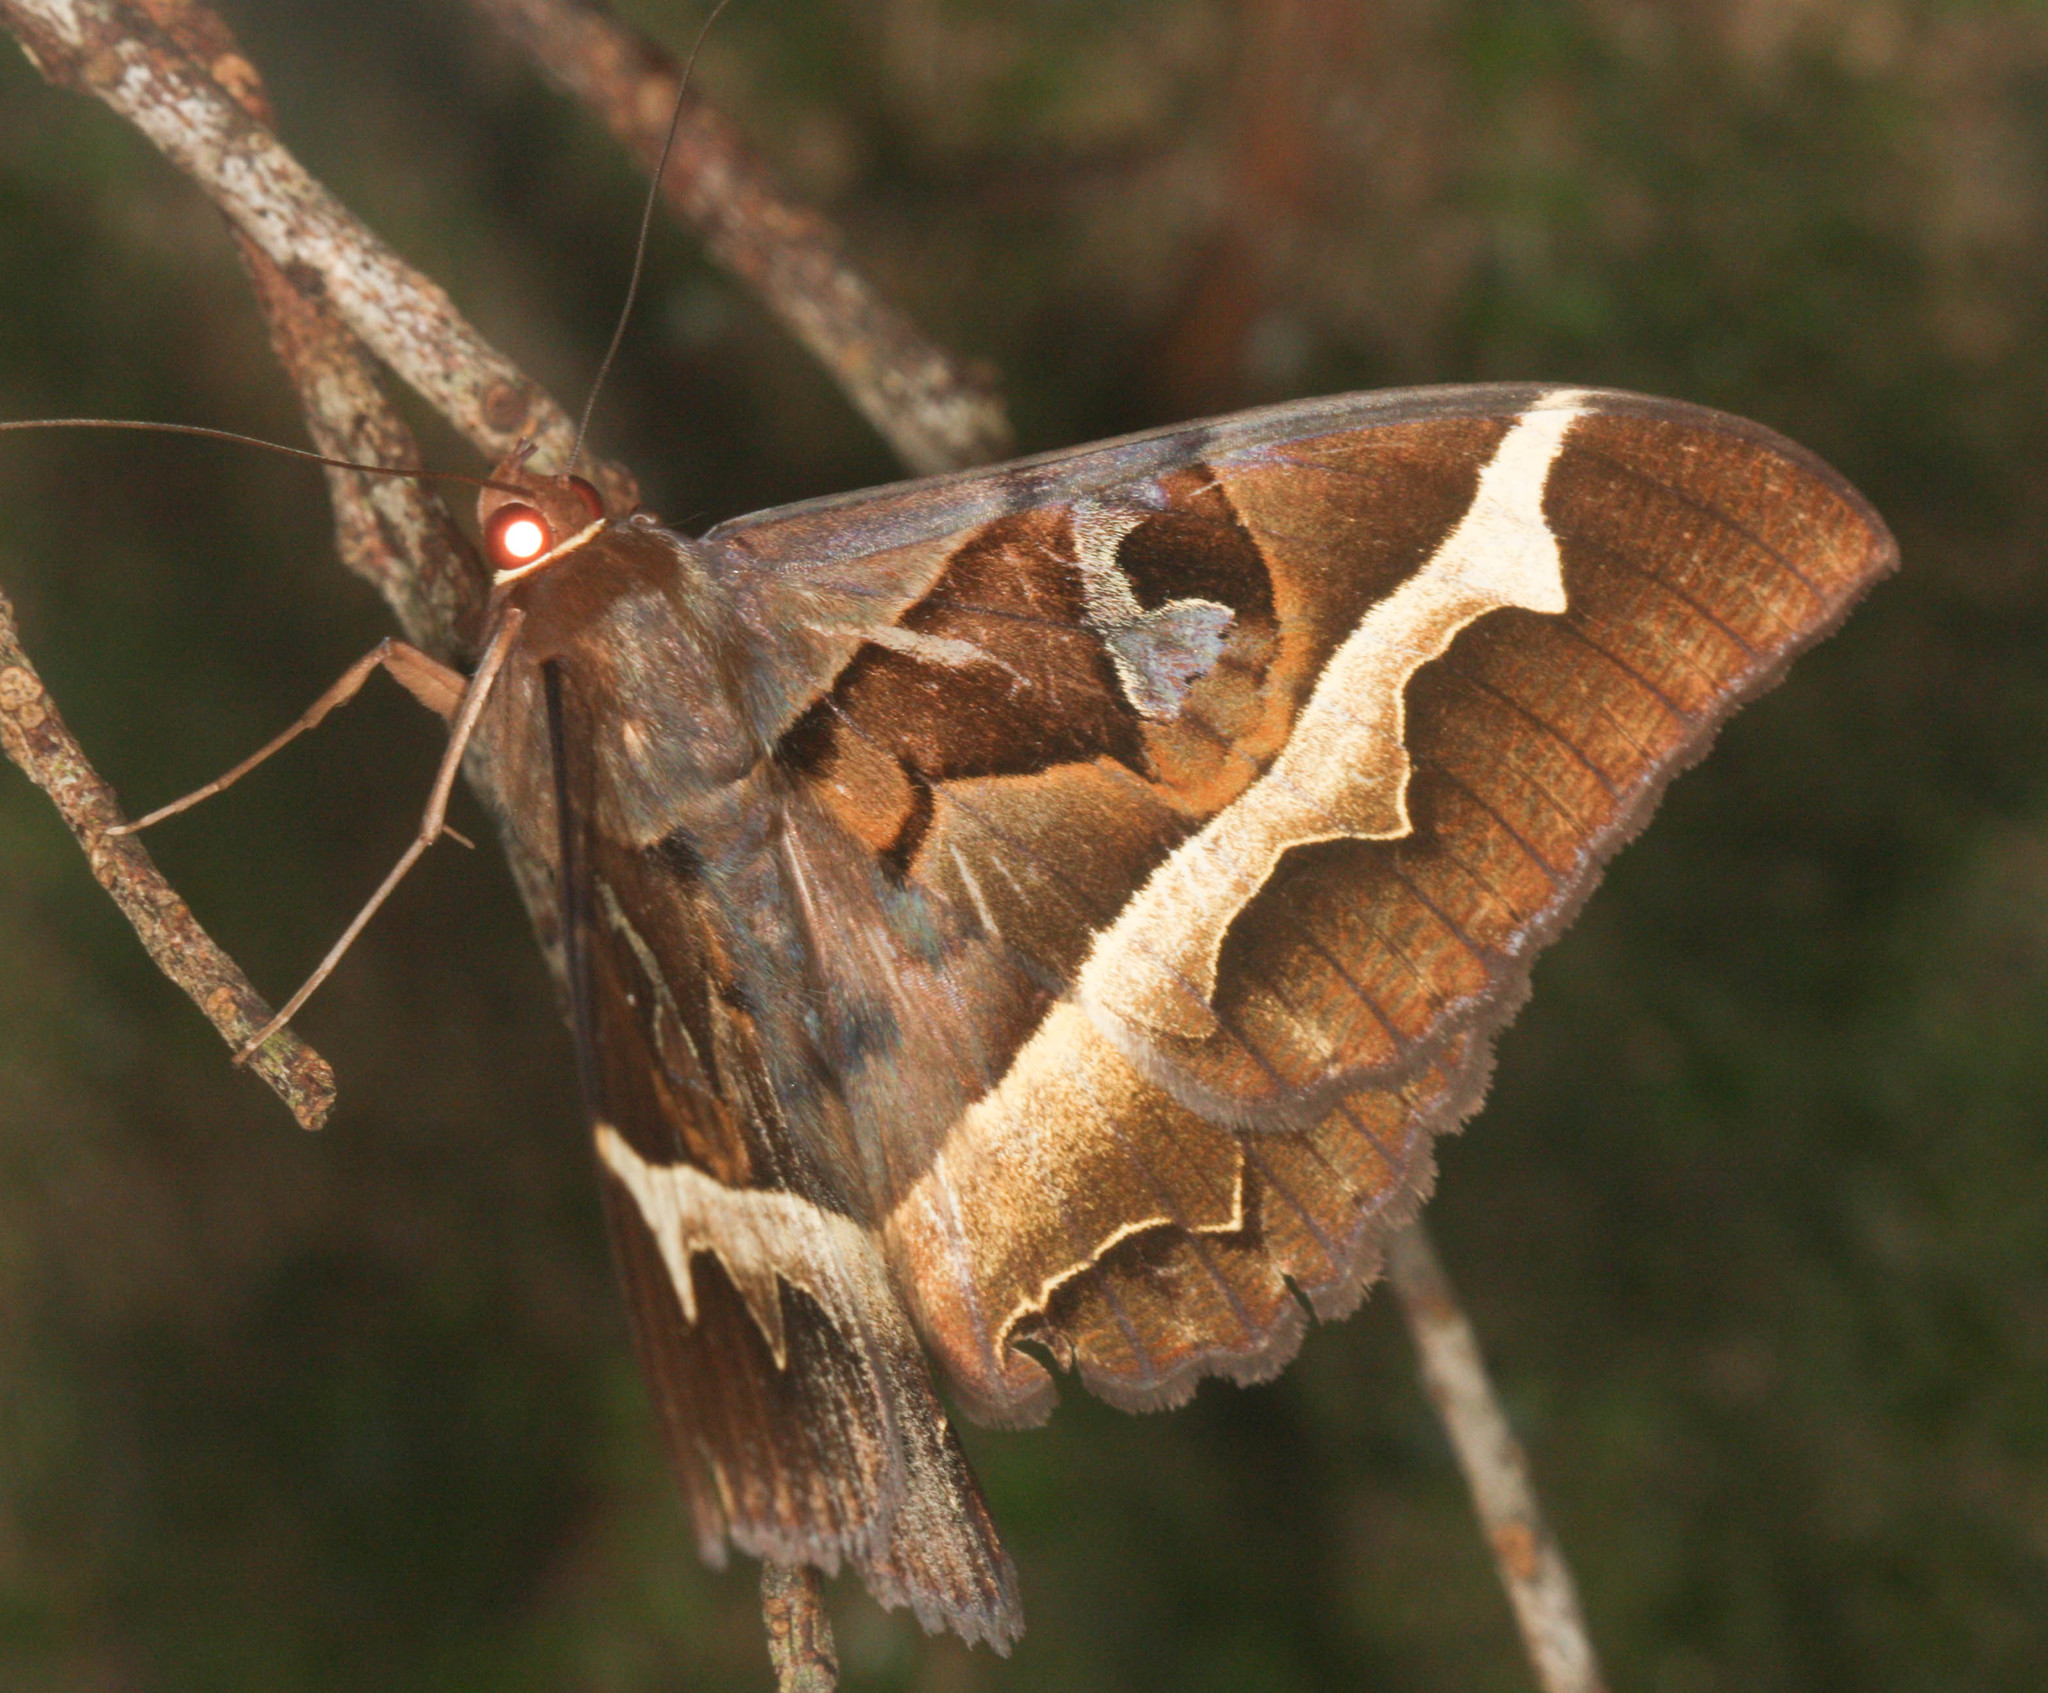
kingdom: Animalia
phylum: Arthropoda
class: Insecta
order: Lepidoptera
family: Erebidae
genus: Melipotis
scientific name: Melipotis perpendicularis
